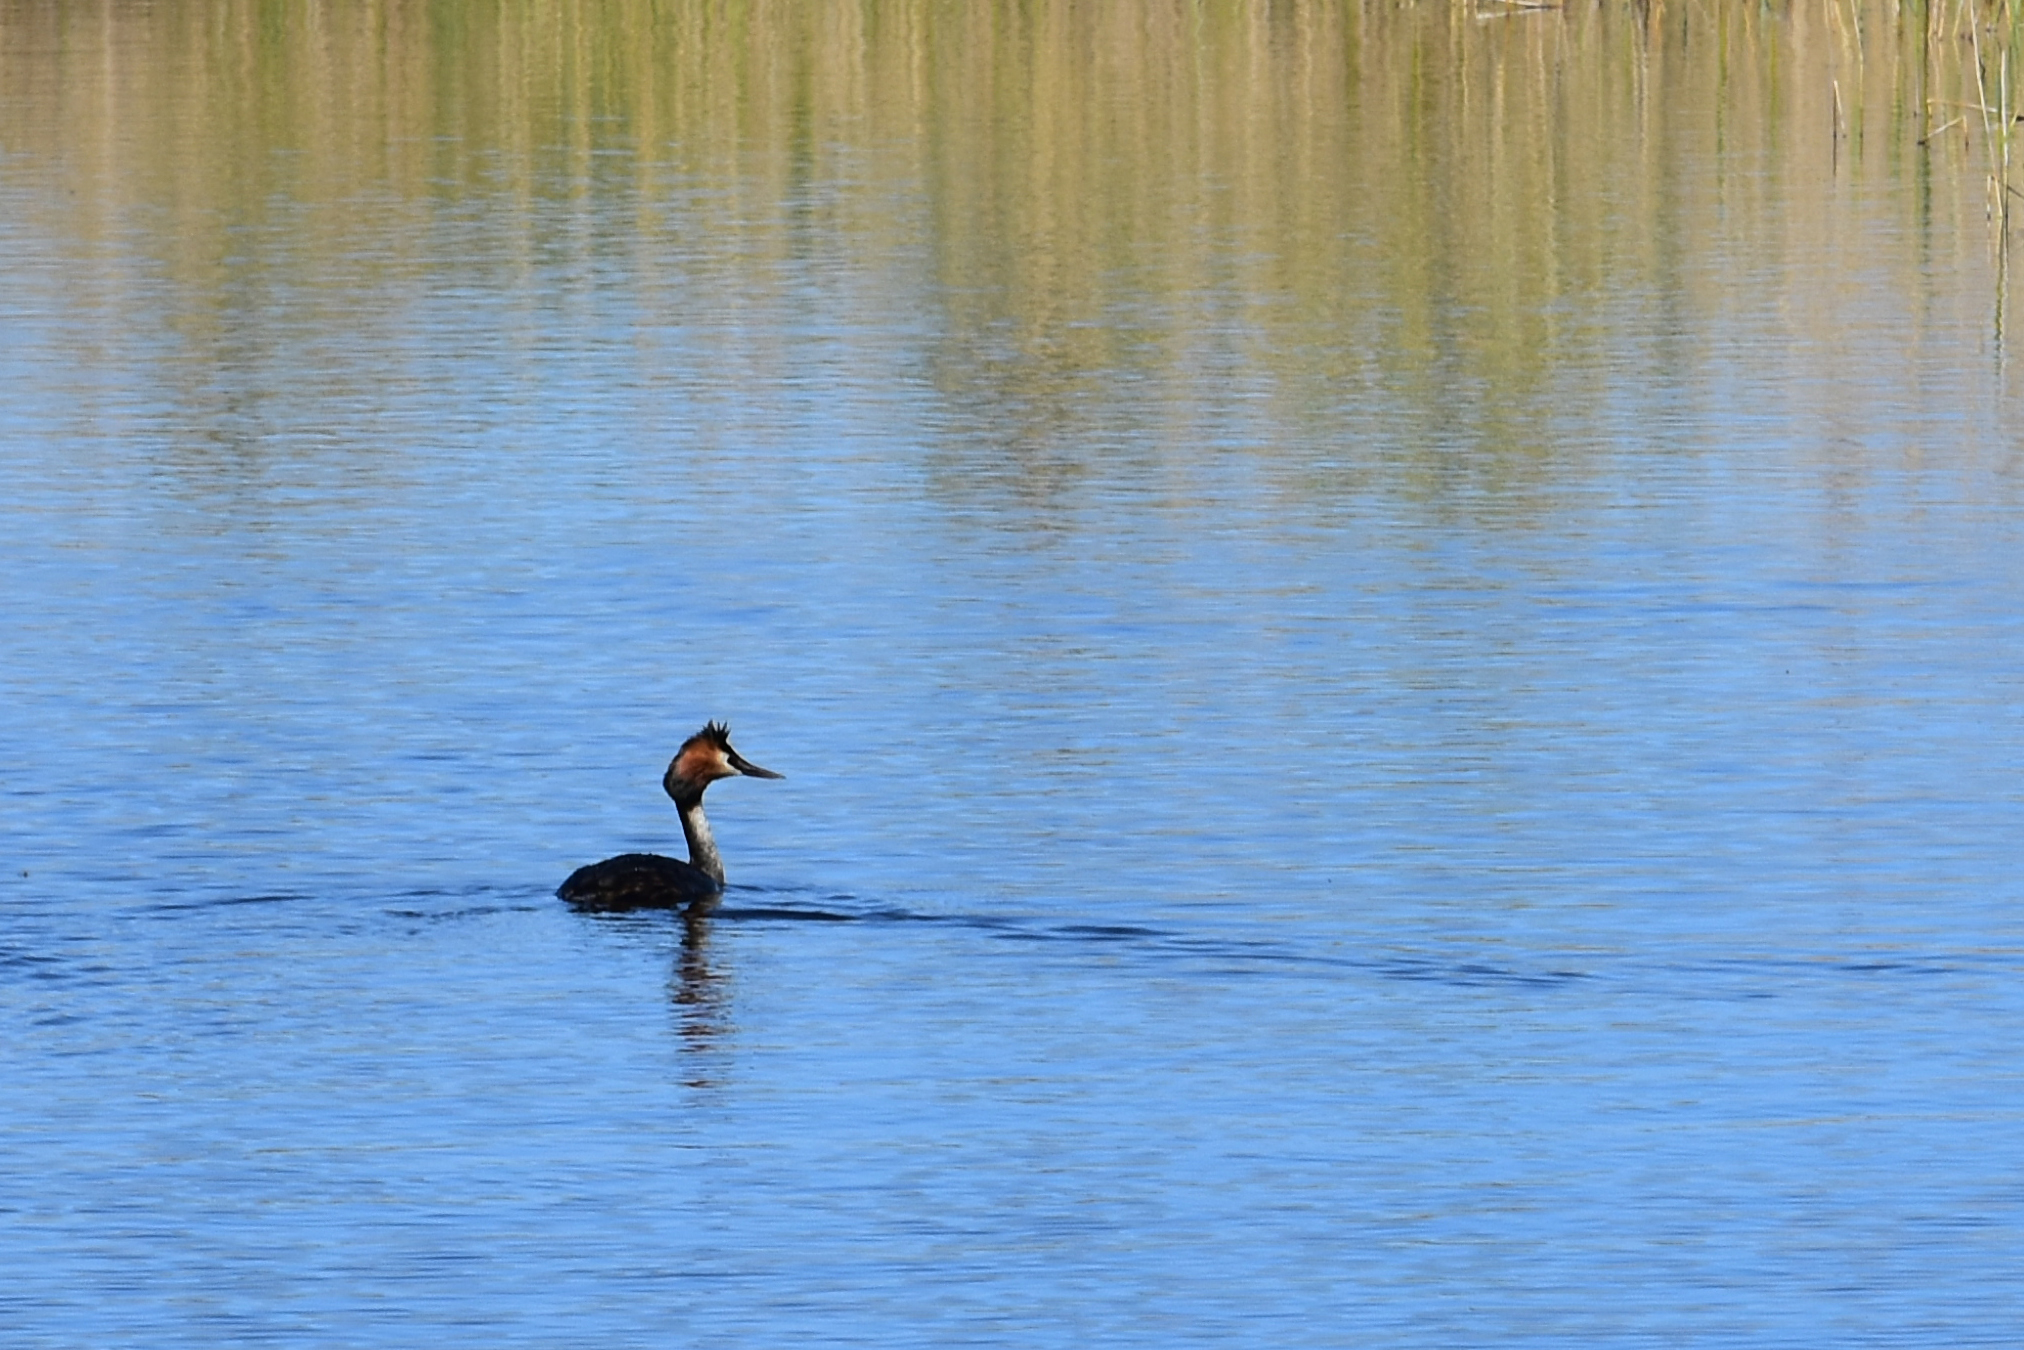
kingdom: Animalia
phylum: Chordata
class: Aves
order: Podicipediformes
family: Podicipedidae
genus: Podiceps
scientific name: Podiceps cristatus
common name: Great crested grebe
